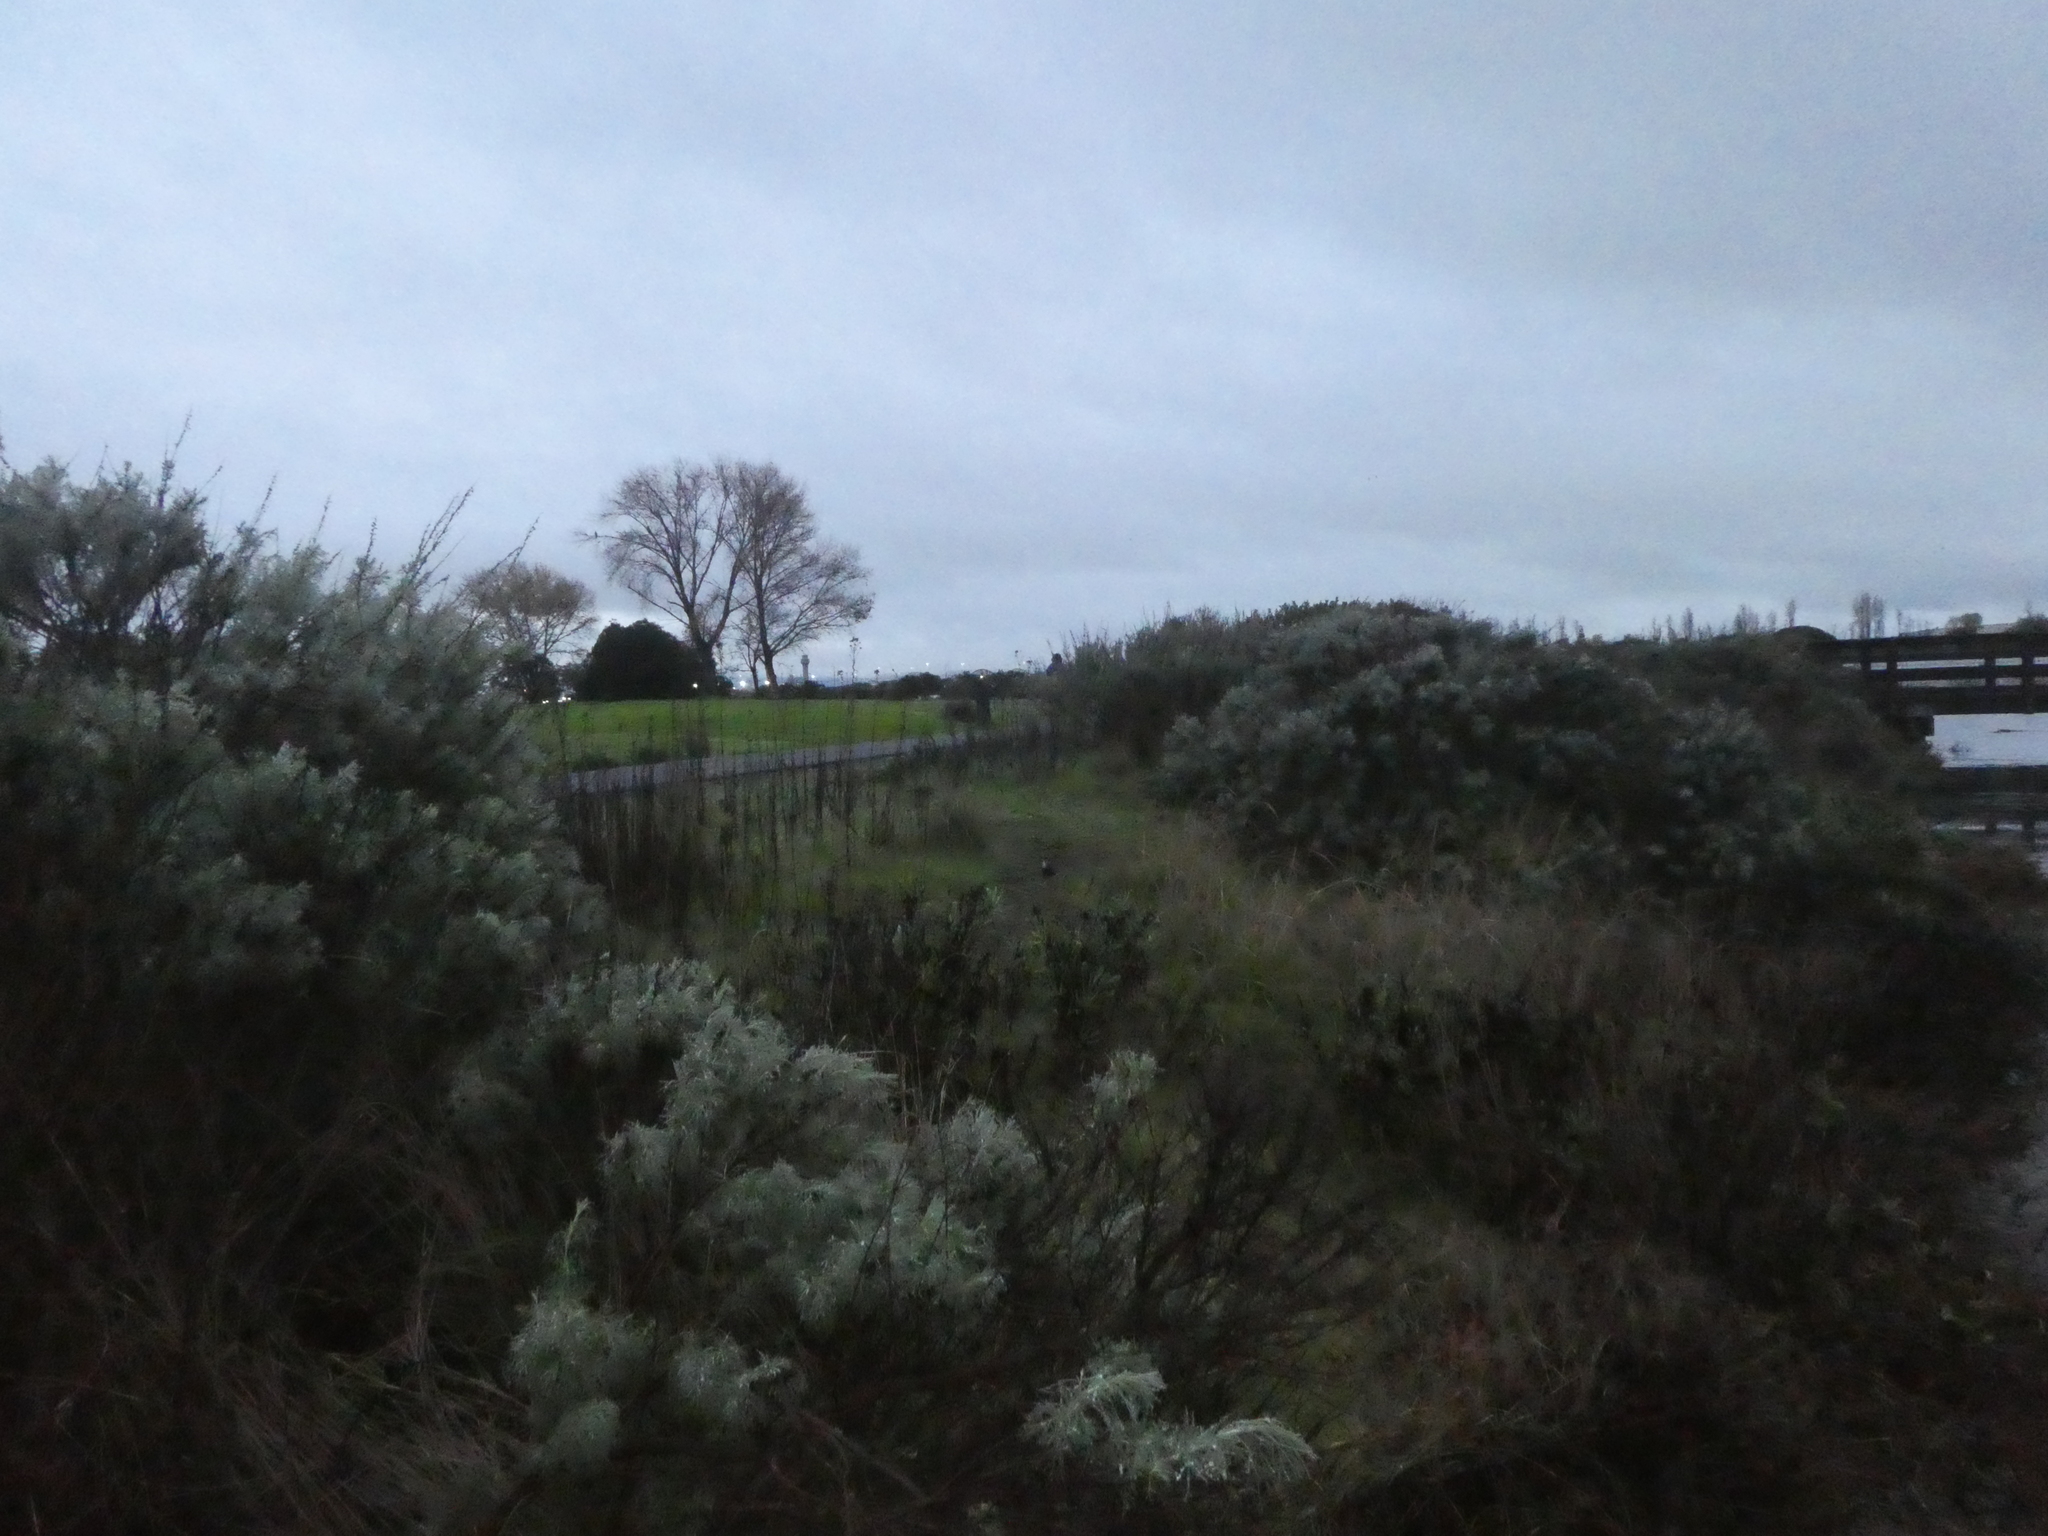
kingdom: Animalia
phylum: Chordata
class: Aves
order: Gruiformes
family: Rallidae
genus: Porzana
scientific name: Porzana carolina
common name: Sora
